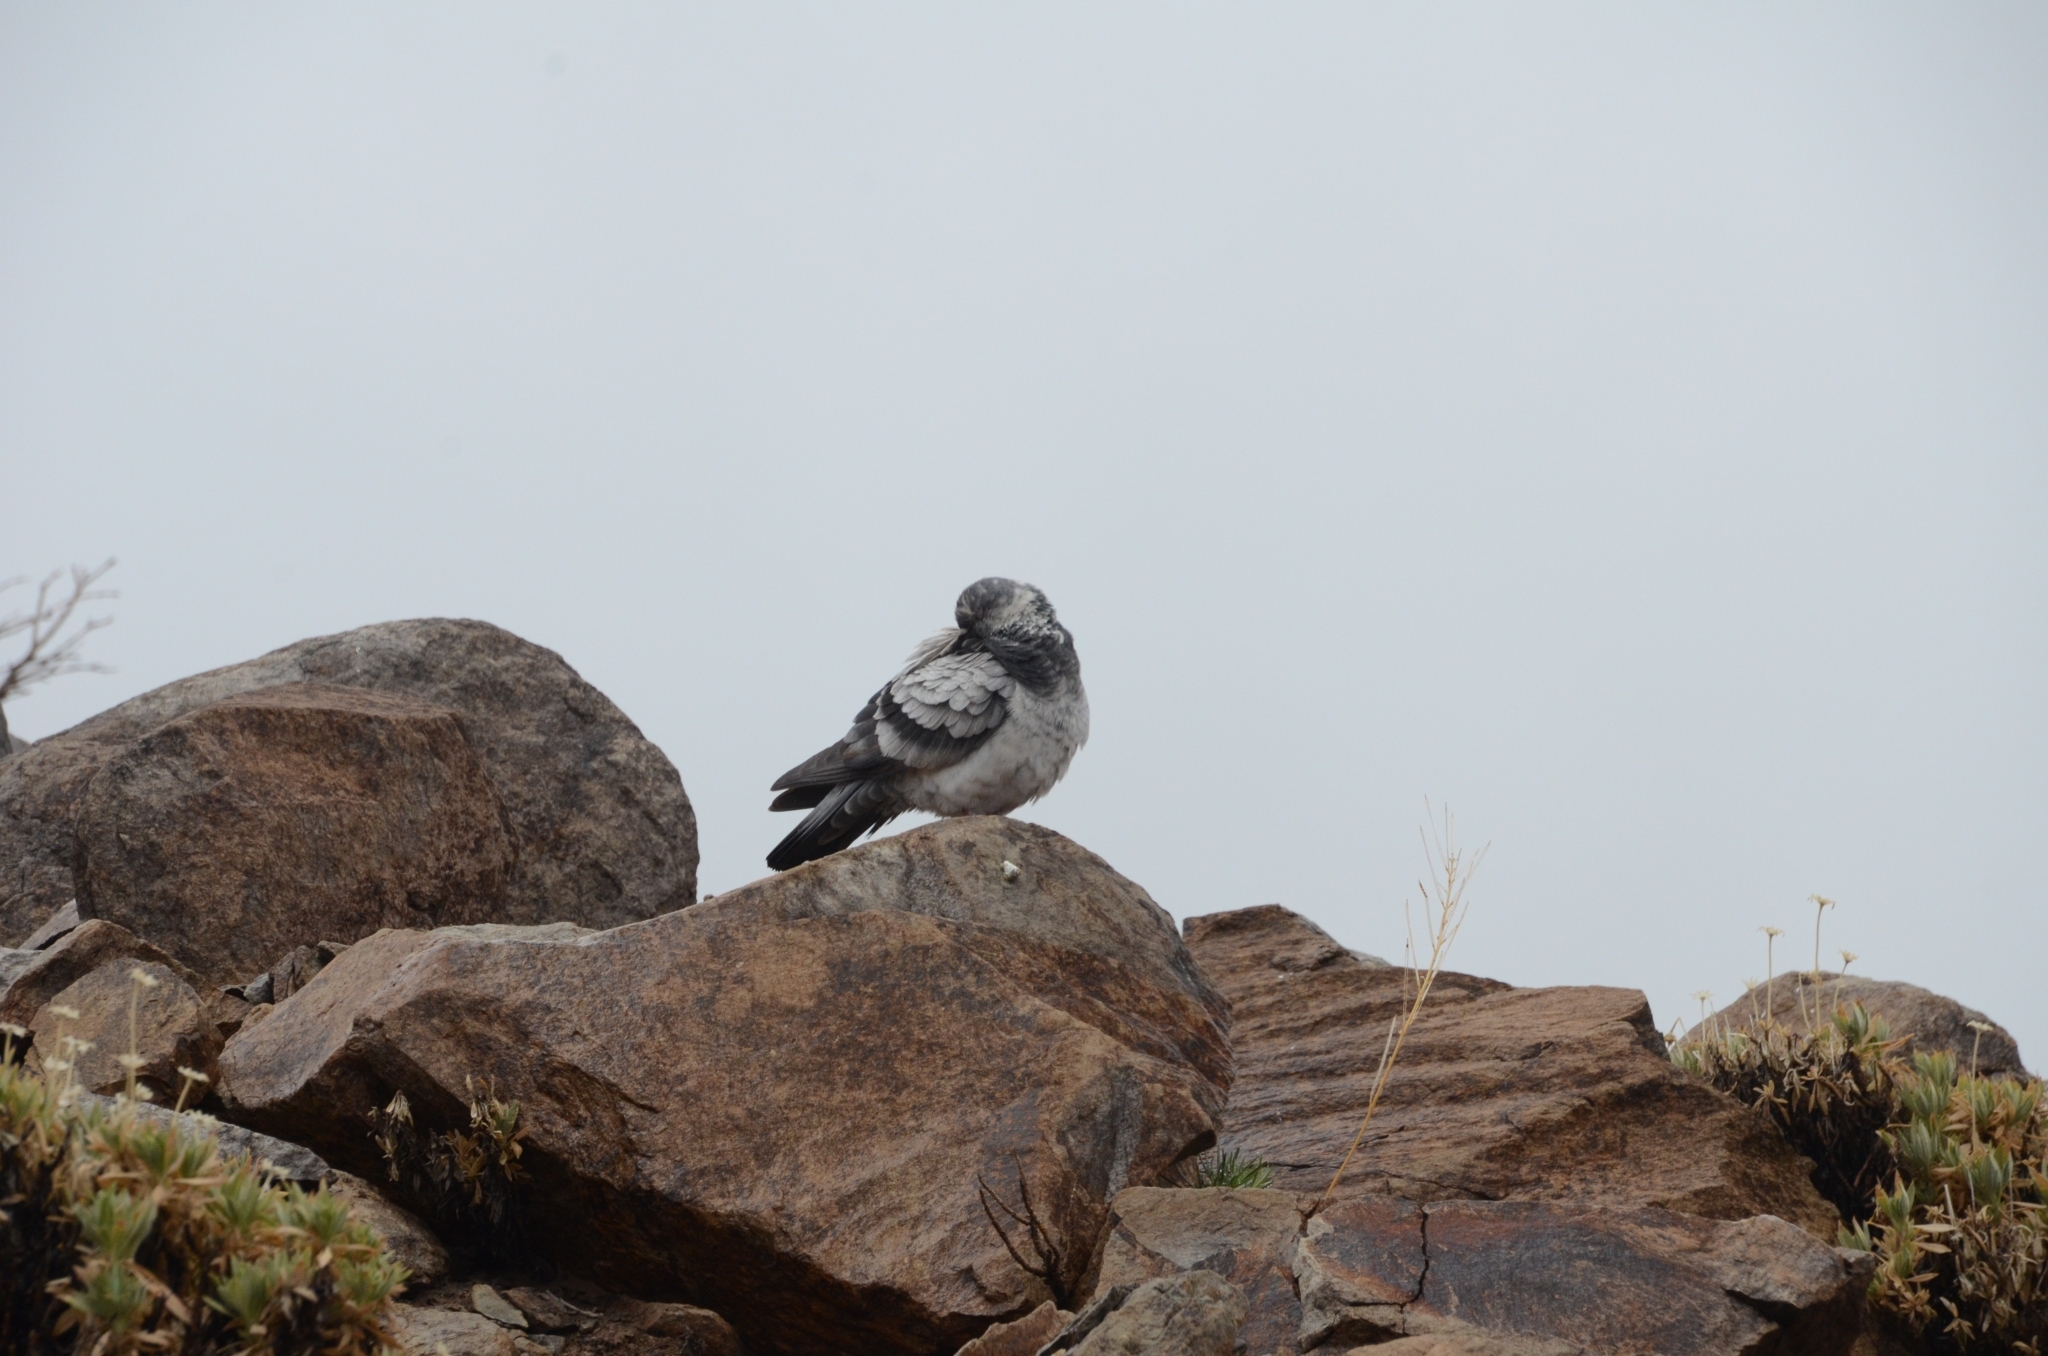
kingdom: Animalia
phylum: Chordata
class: Aves
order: Columbiformes
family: Columbidae
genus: Columba
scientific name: Columba livia
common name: Rock pigeon
